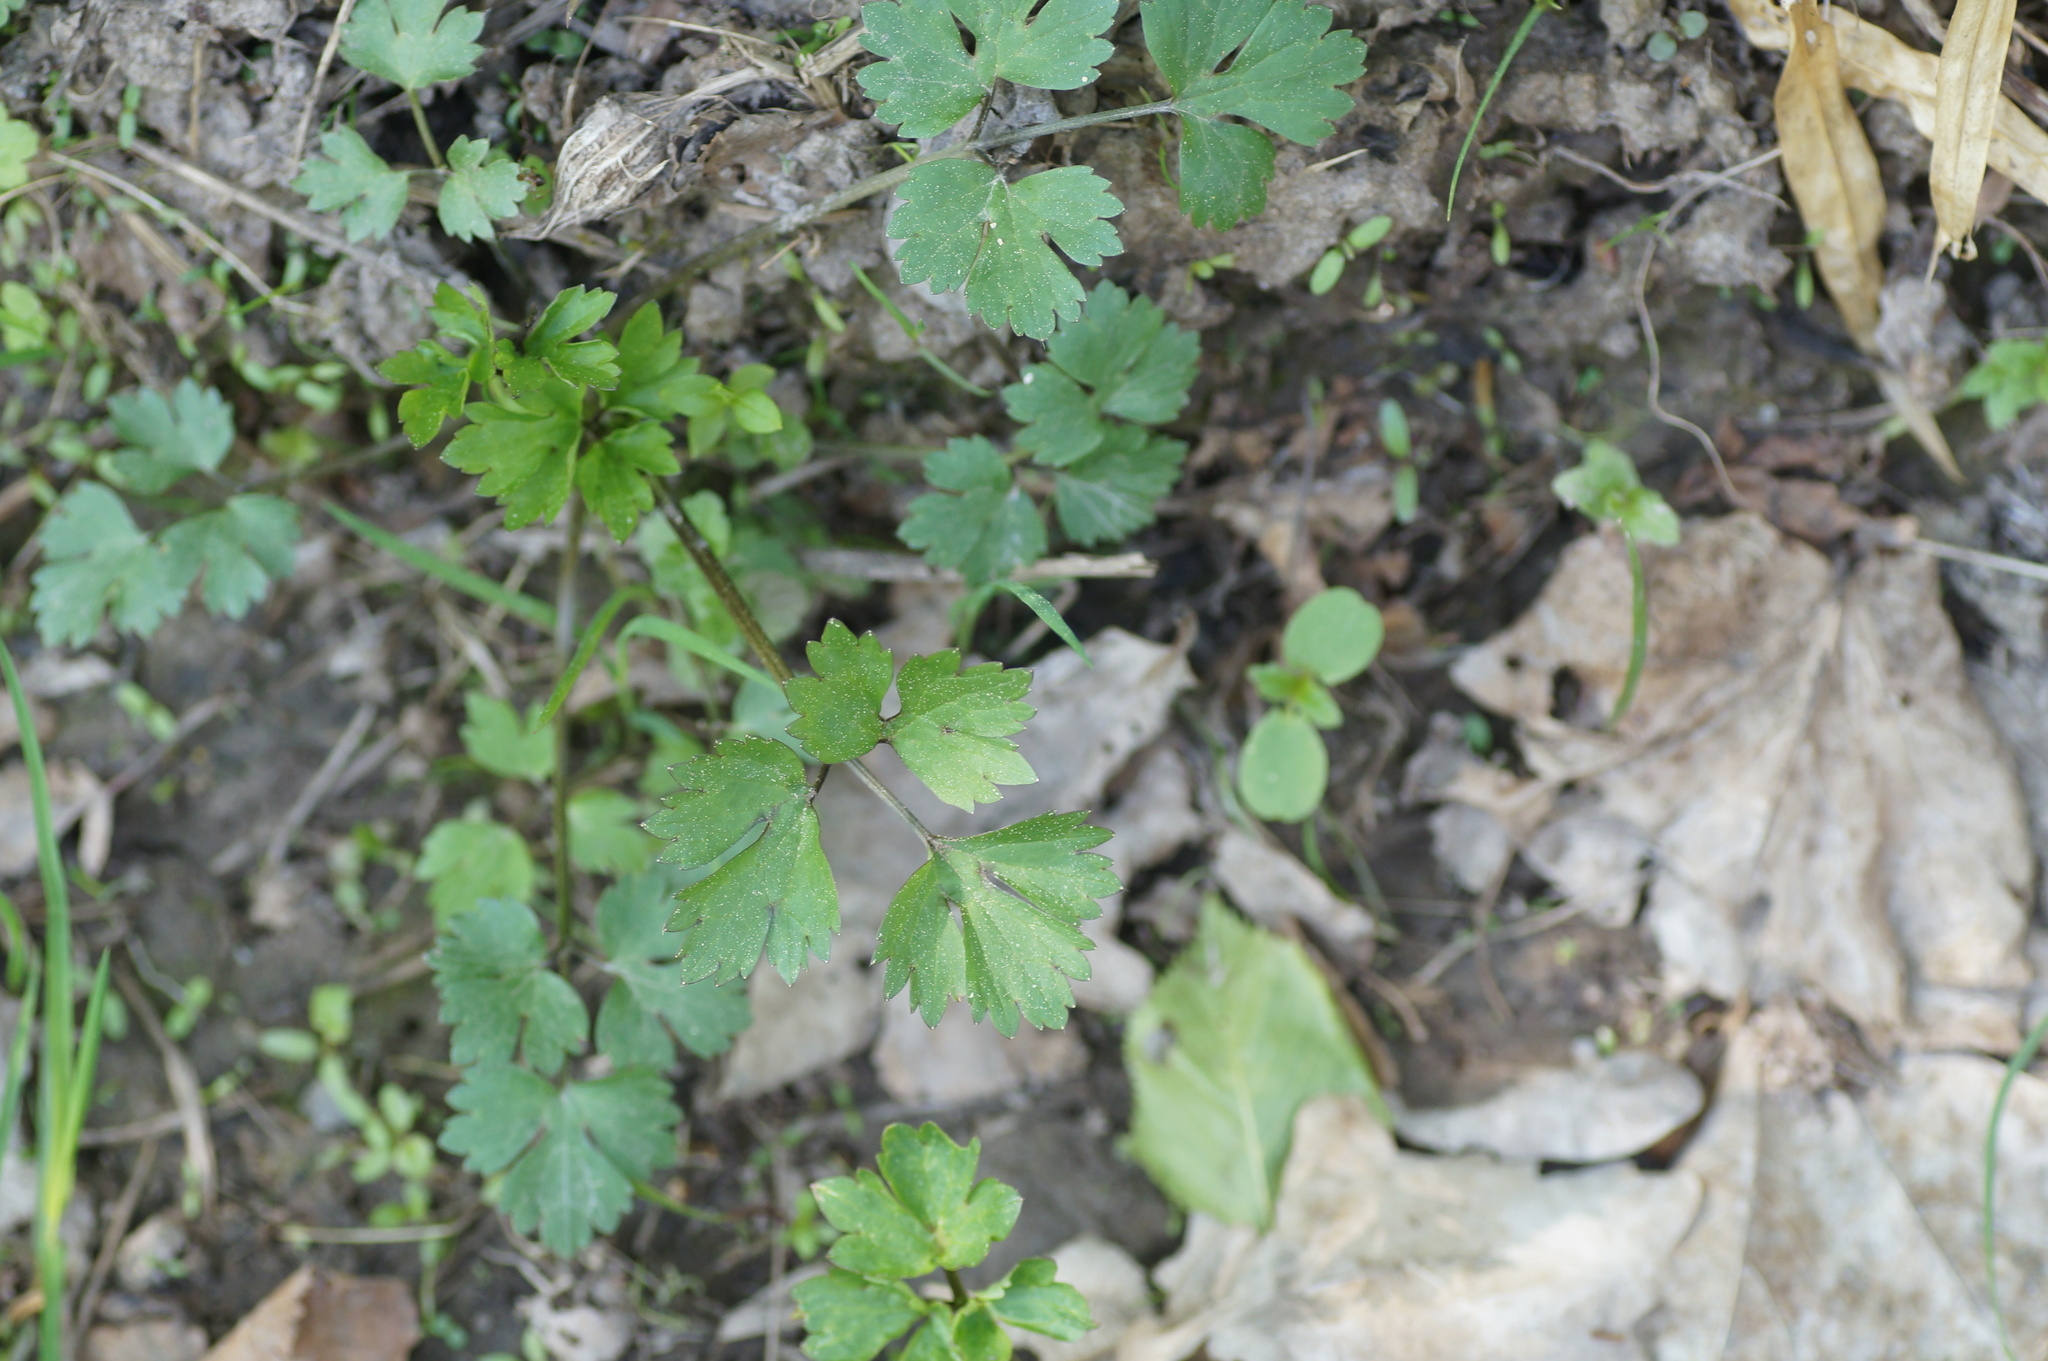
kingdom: Plantae
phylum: Tracheophyta
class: Magnoliopsida
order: Ranunculales
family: Ranunculaceae
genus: Ranunculus
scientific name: Ranunculus repens
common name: Creeping buttercup
